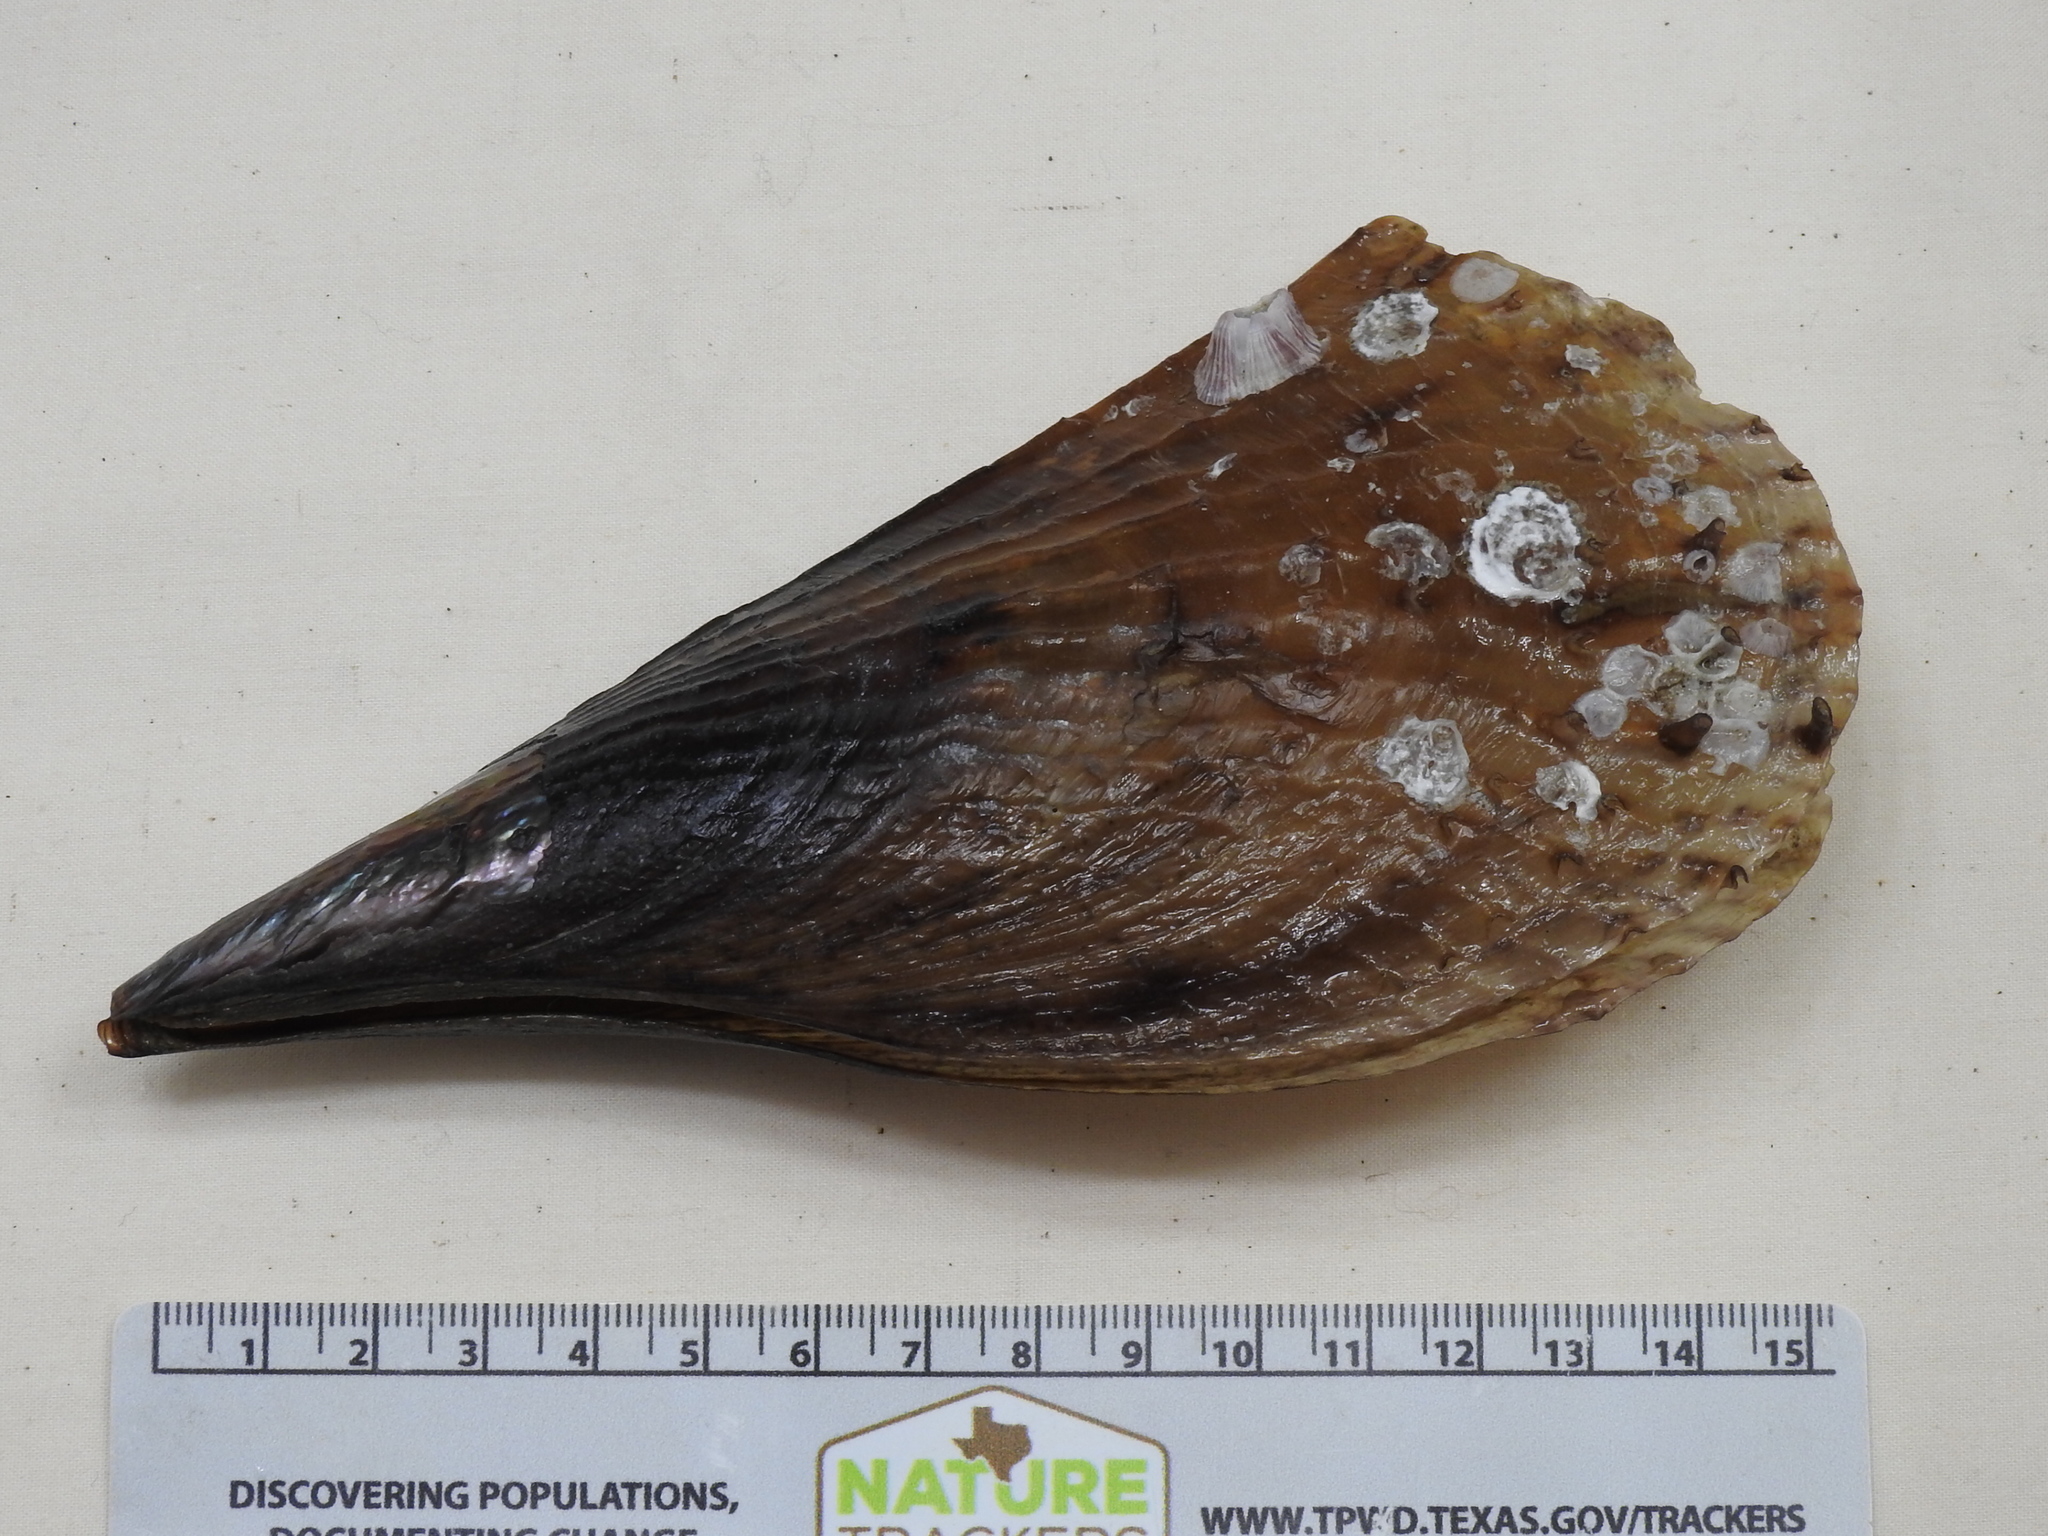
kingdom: Animalia
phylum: Mollusca
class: Bivalvia
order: Ostreida
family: Pinnidae
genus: Atrina
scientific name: Atrina rigida
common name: Stiff penshell
